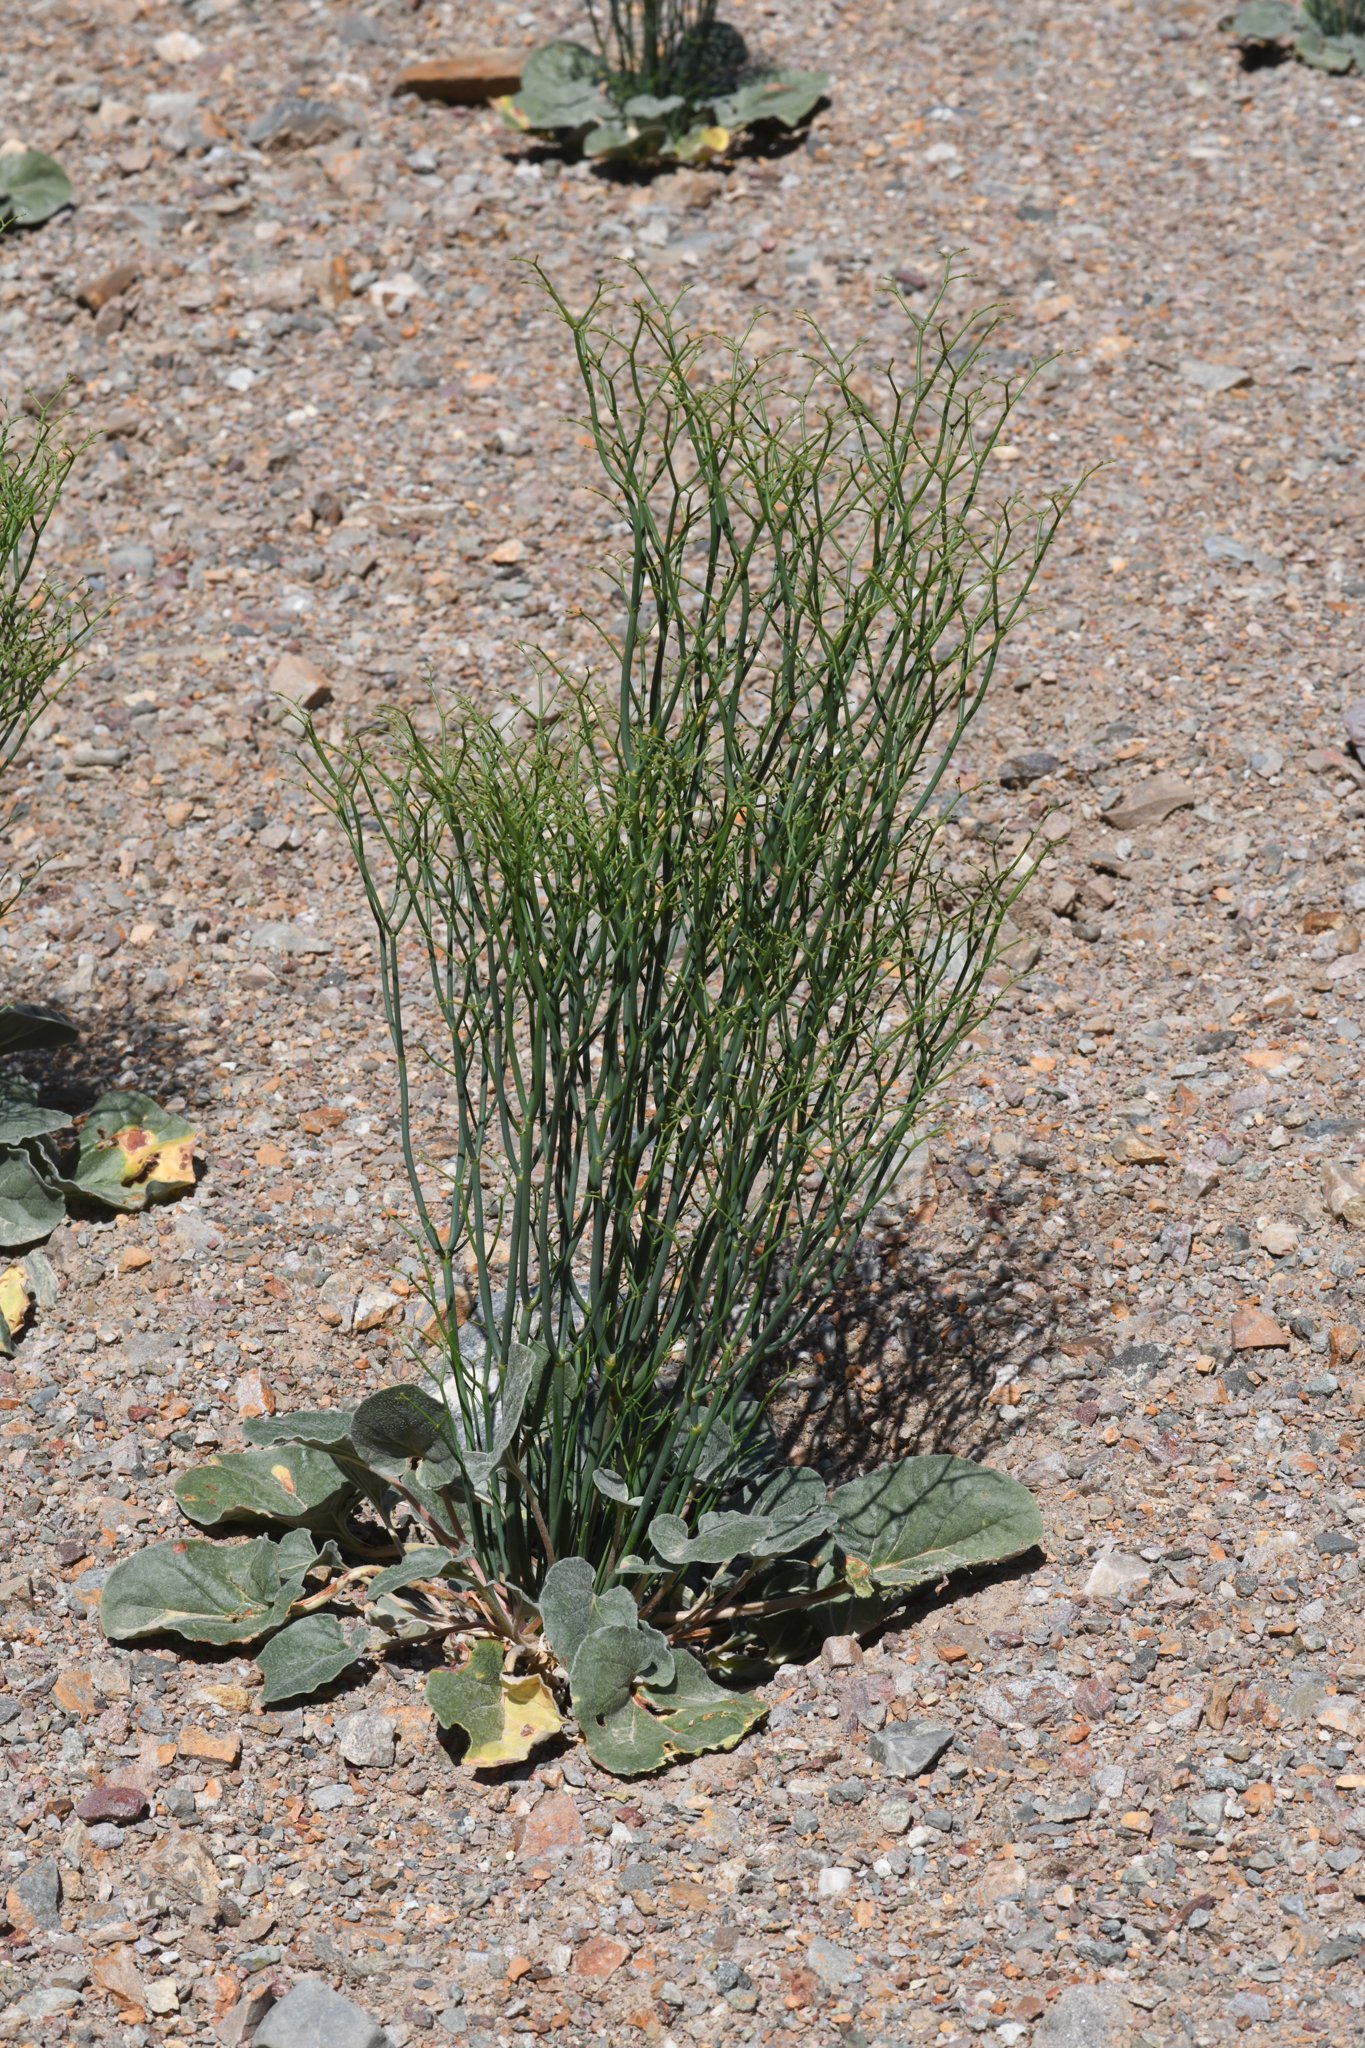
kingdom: Plantae
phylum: Tracheophyta
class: Magnoliopsida
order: Caryophyllales
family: Polygonaceae
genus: Eriogonum
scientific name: Eriogonum rixfordii
